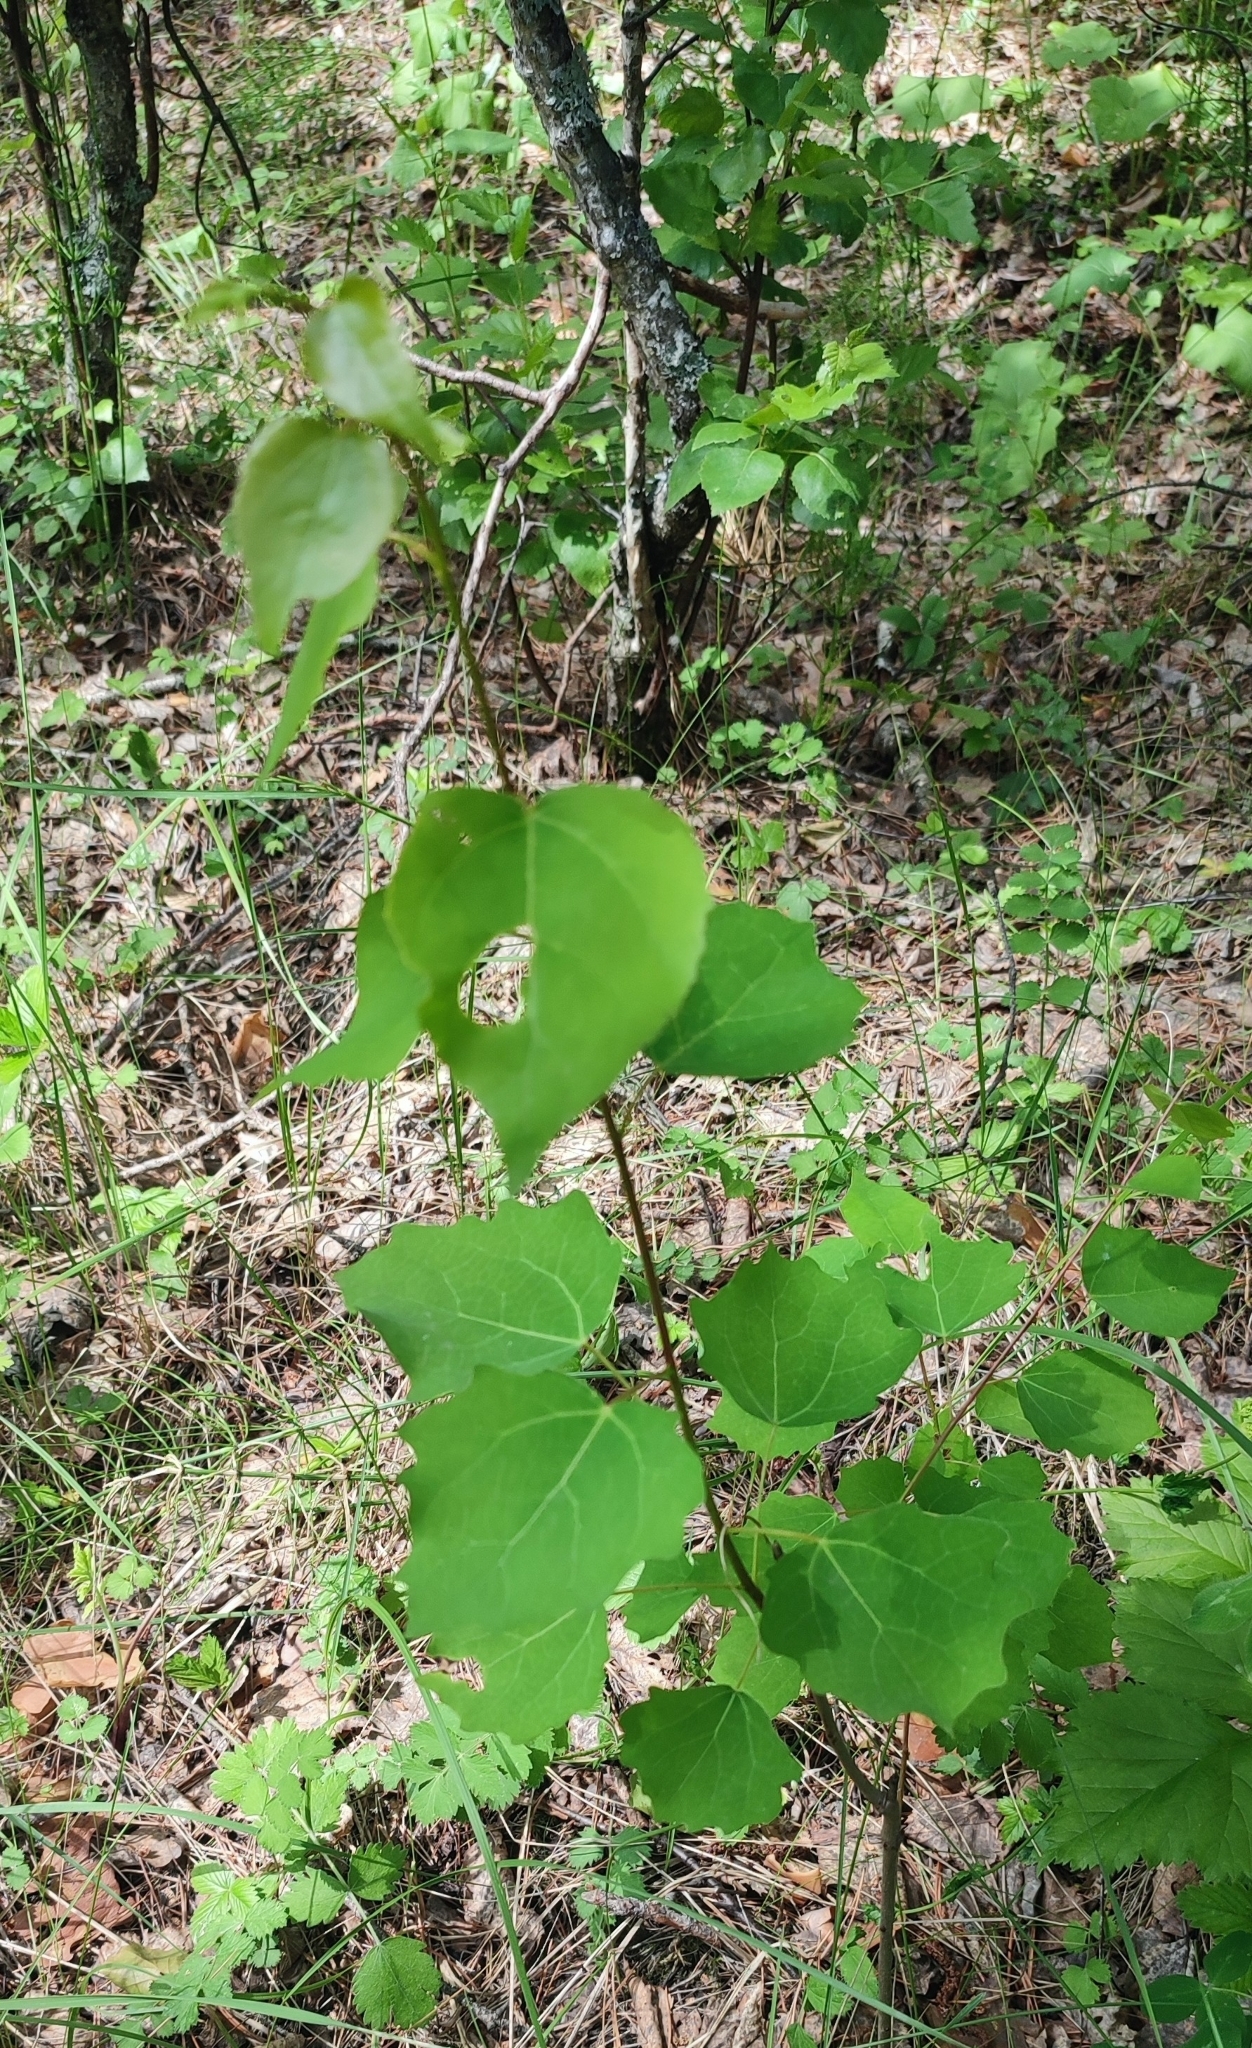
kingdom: Plantae
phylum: Tracheophyta
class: Magnoliopsida
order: Malpighiales
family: Salicaceae
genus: Populus
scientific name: Populus tremula
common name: European aspen
